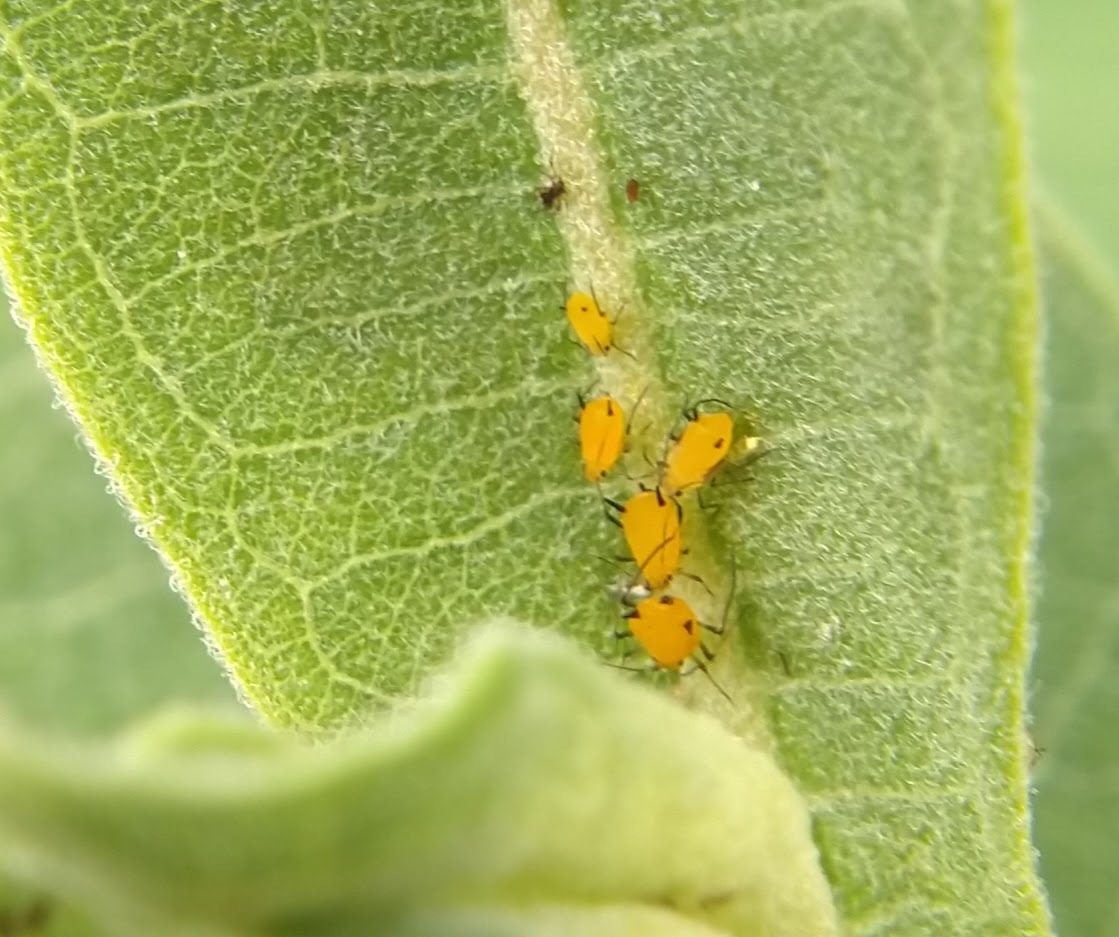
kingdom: Animalia
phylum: Arthropoda
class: Insecta
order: Hemiptera
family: Aphididae
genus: Aphis
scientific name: Aphis nerii
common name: Oleander aphid
